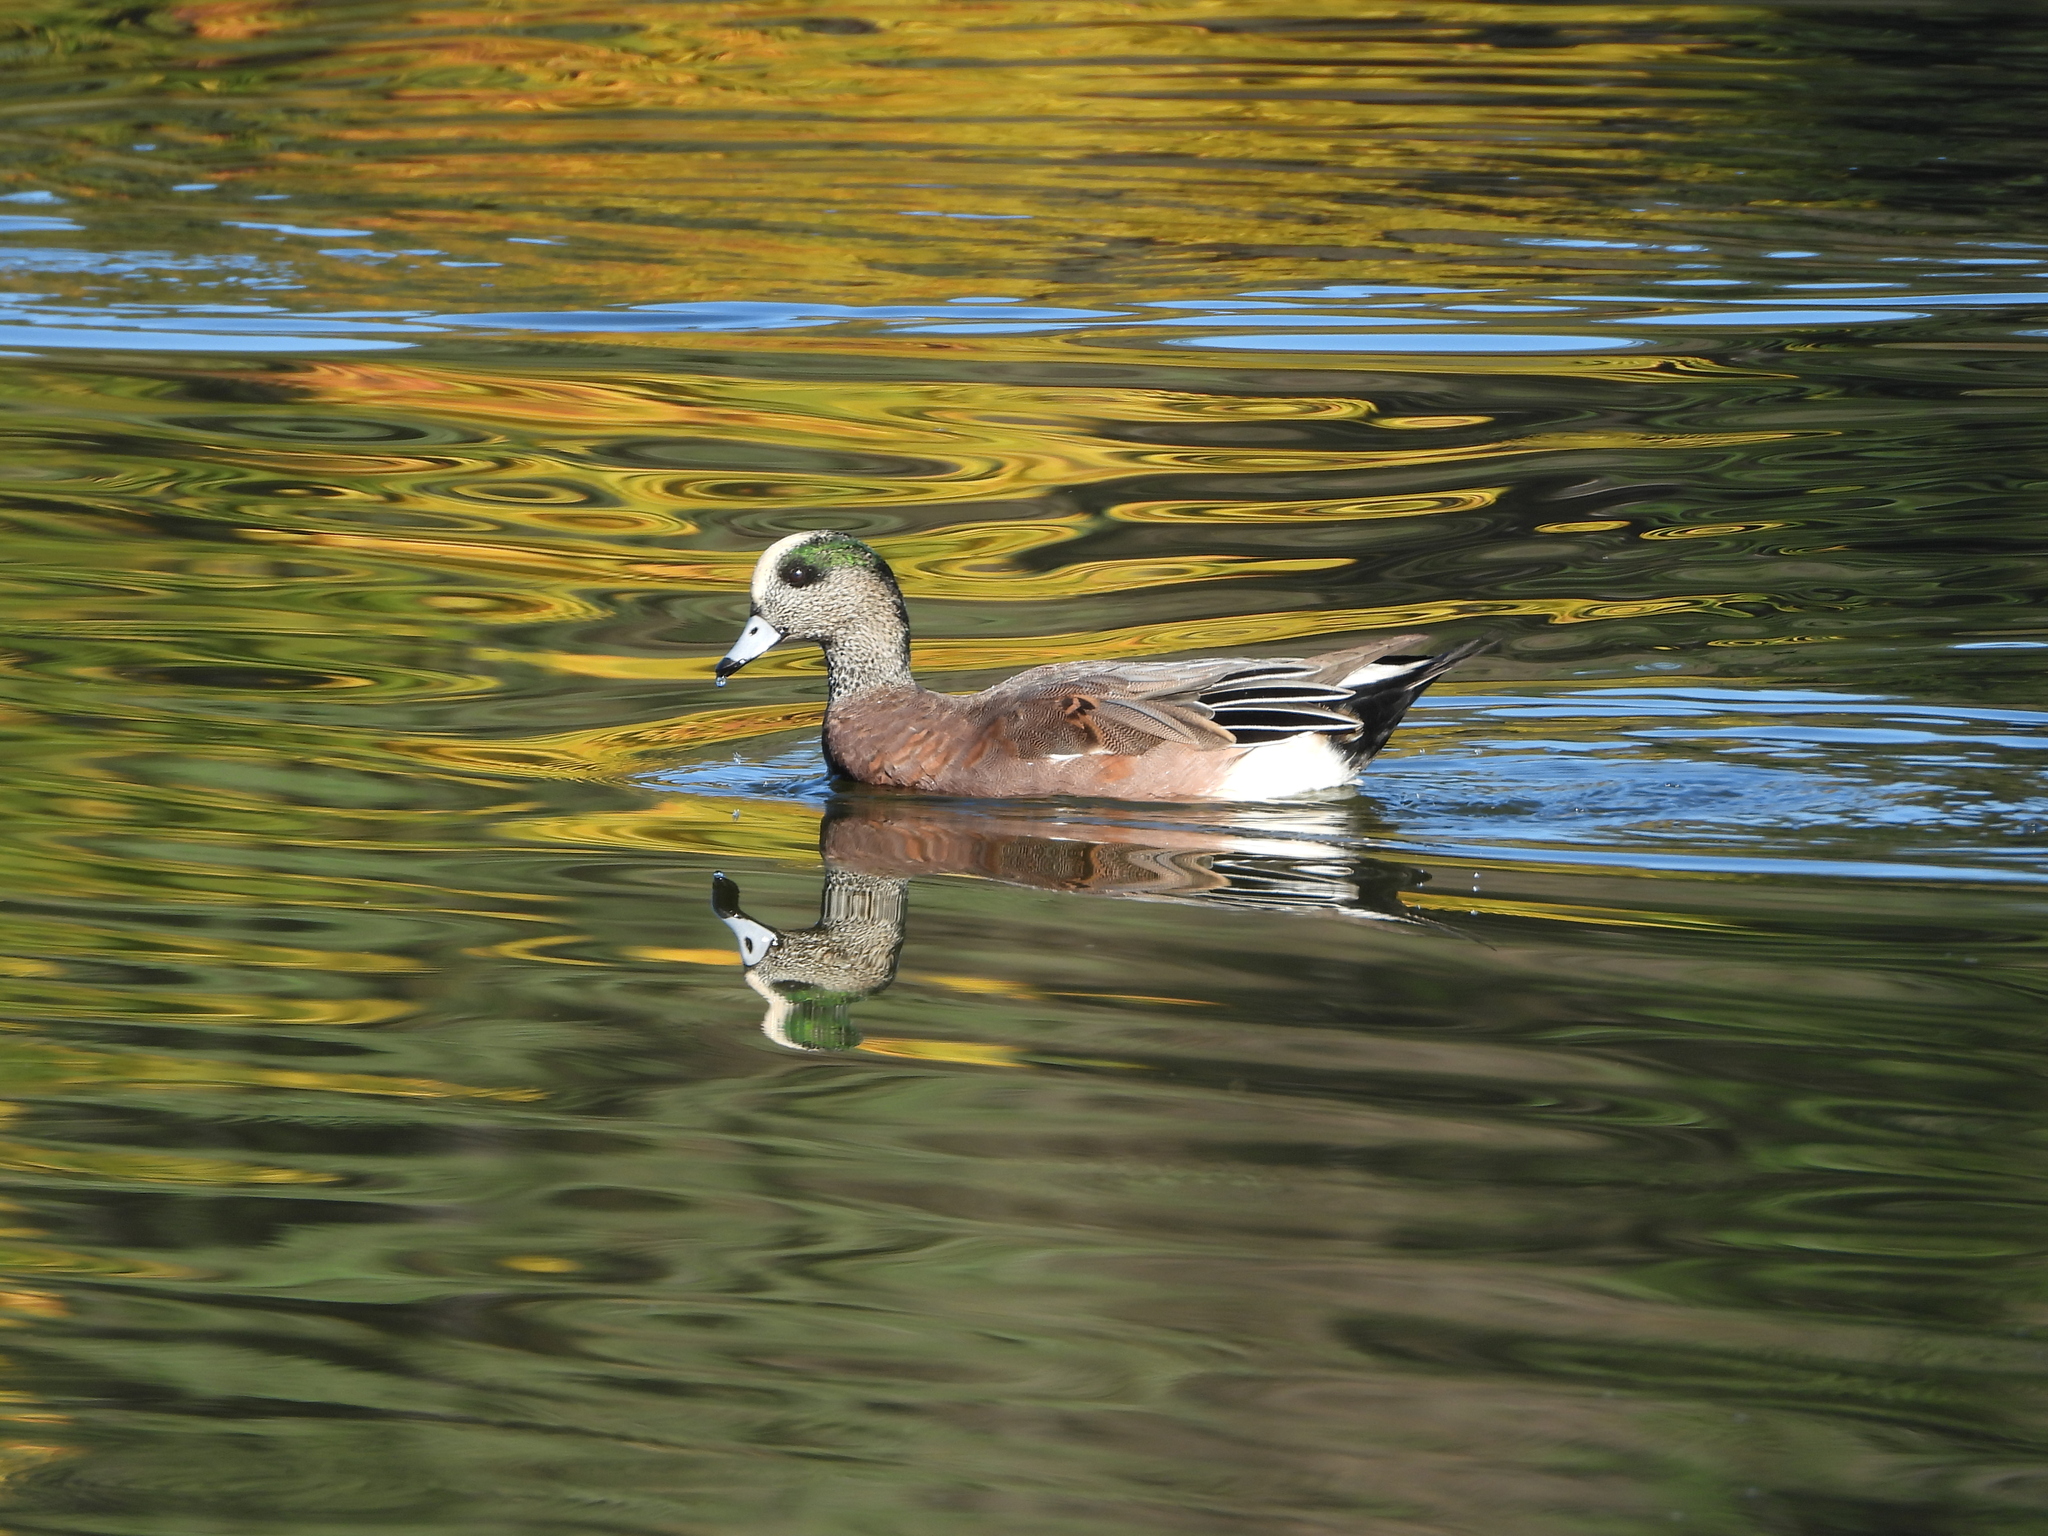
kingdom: Animalia
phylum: Chordata
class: Aves
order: Anseriformes
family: Anatidae
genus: Mareca
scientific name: Mareca americana
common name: American wigeon
